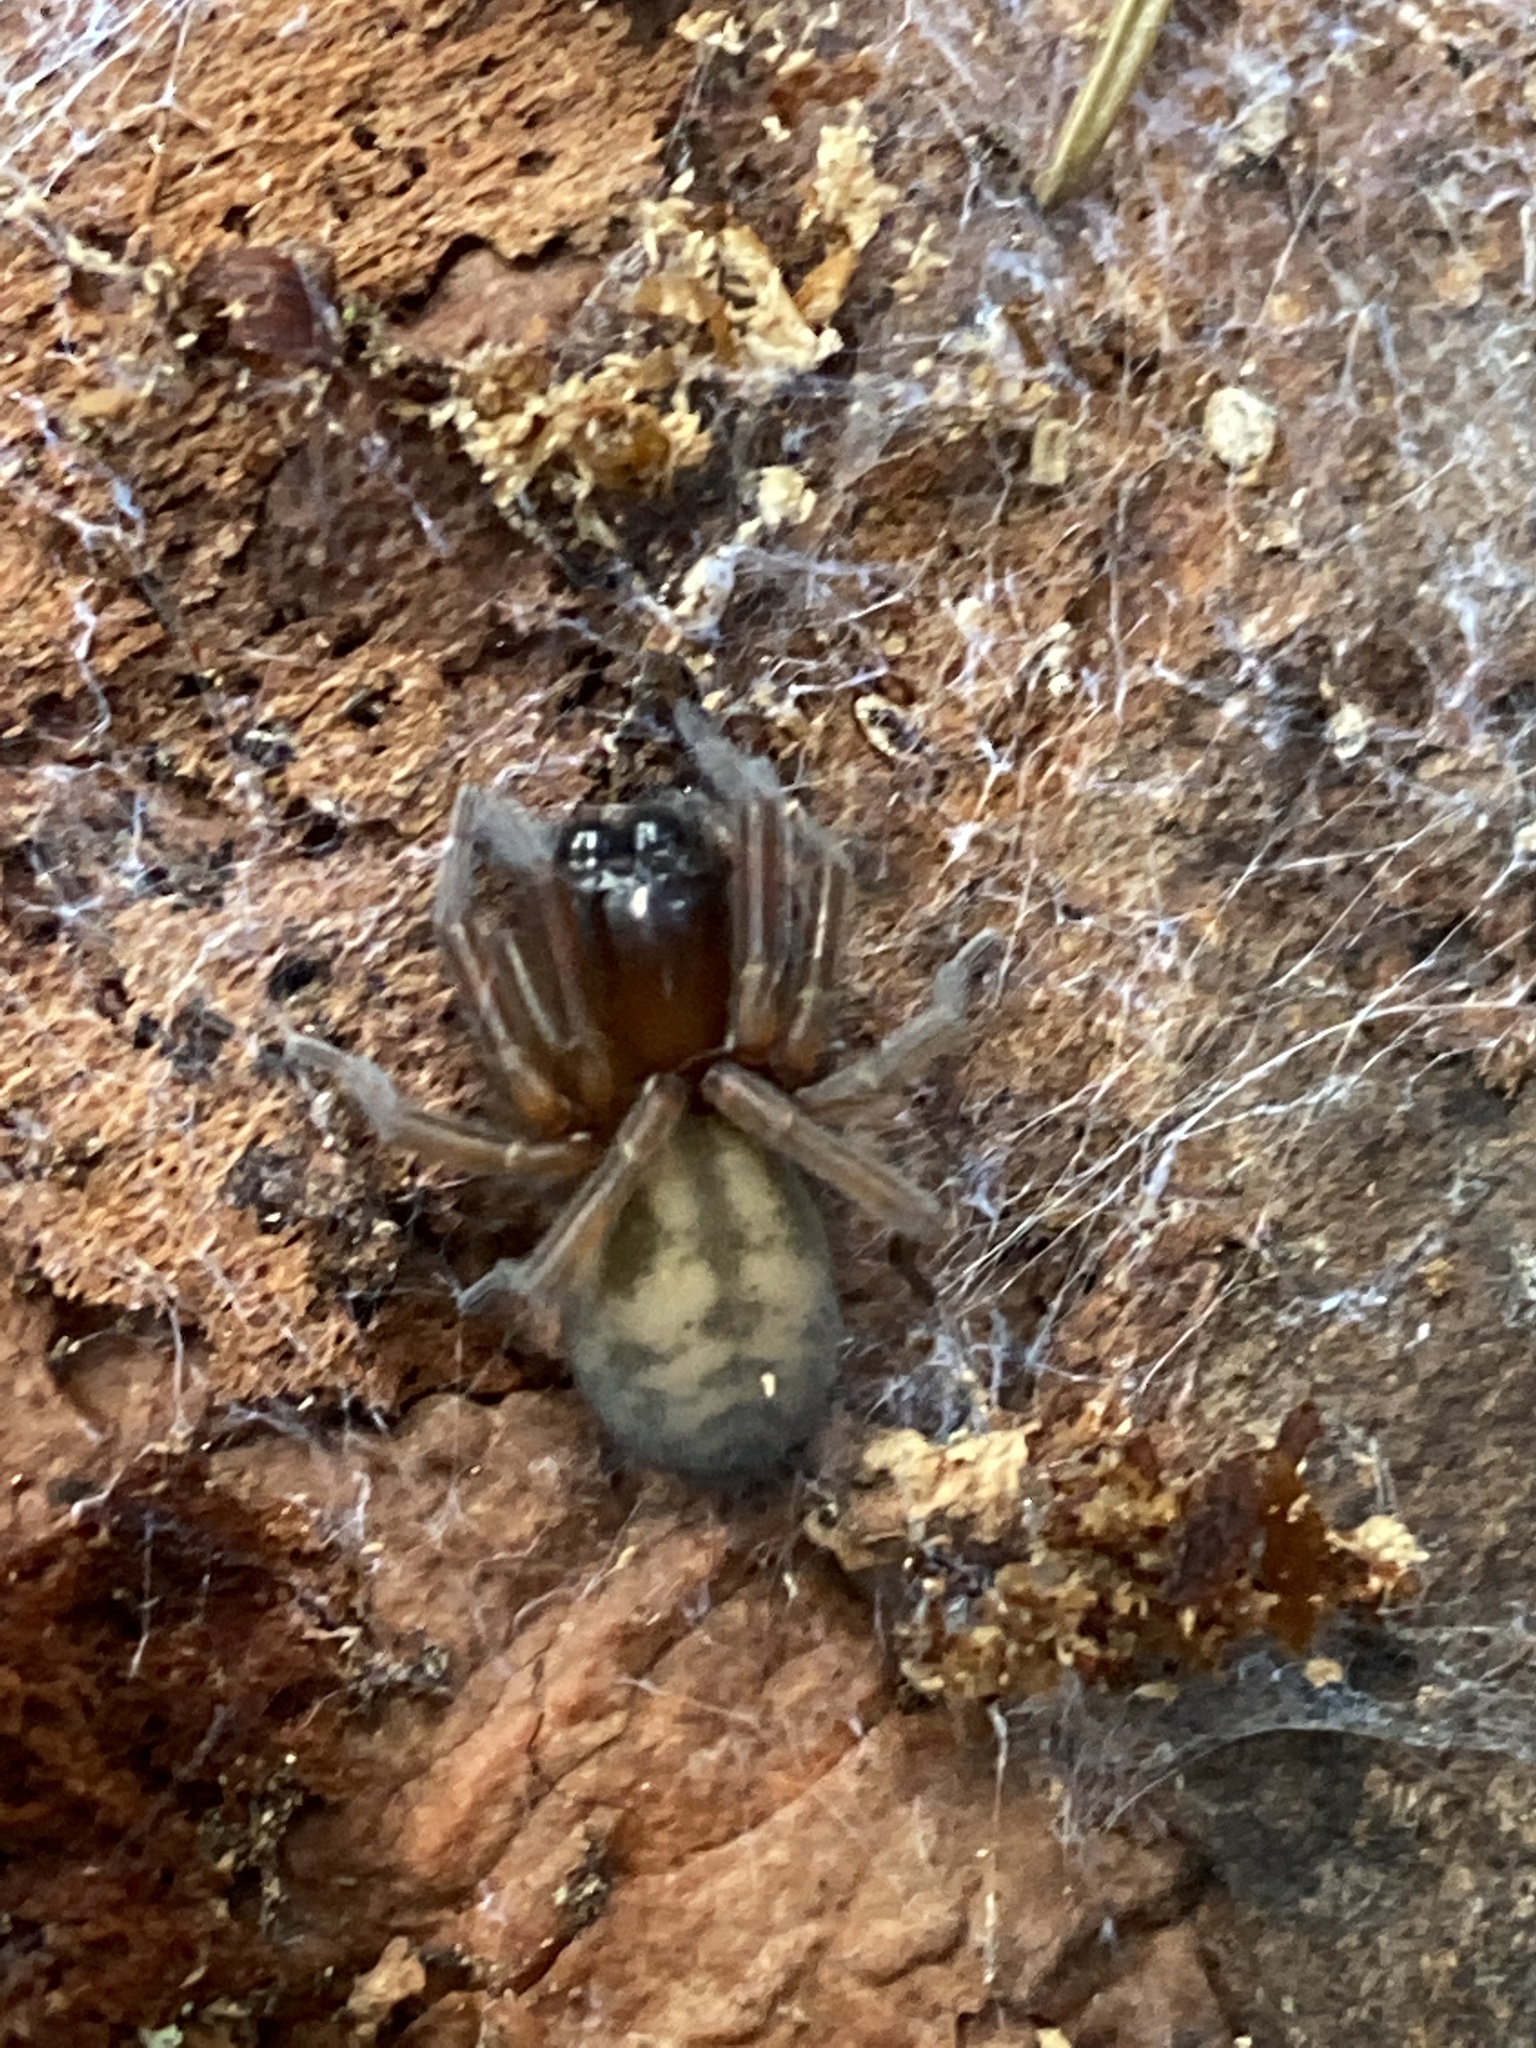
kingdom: Animalia
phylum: Arthropoda
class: Arachnida
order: Araneae
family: Amaurobiidae
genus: Callobius
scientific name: Callobius claustrarius
